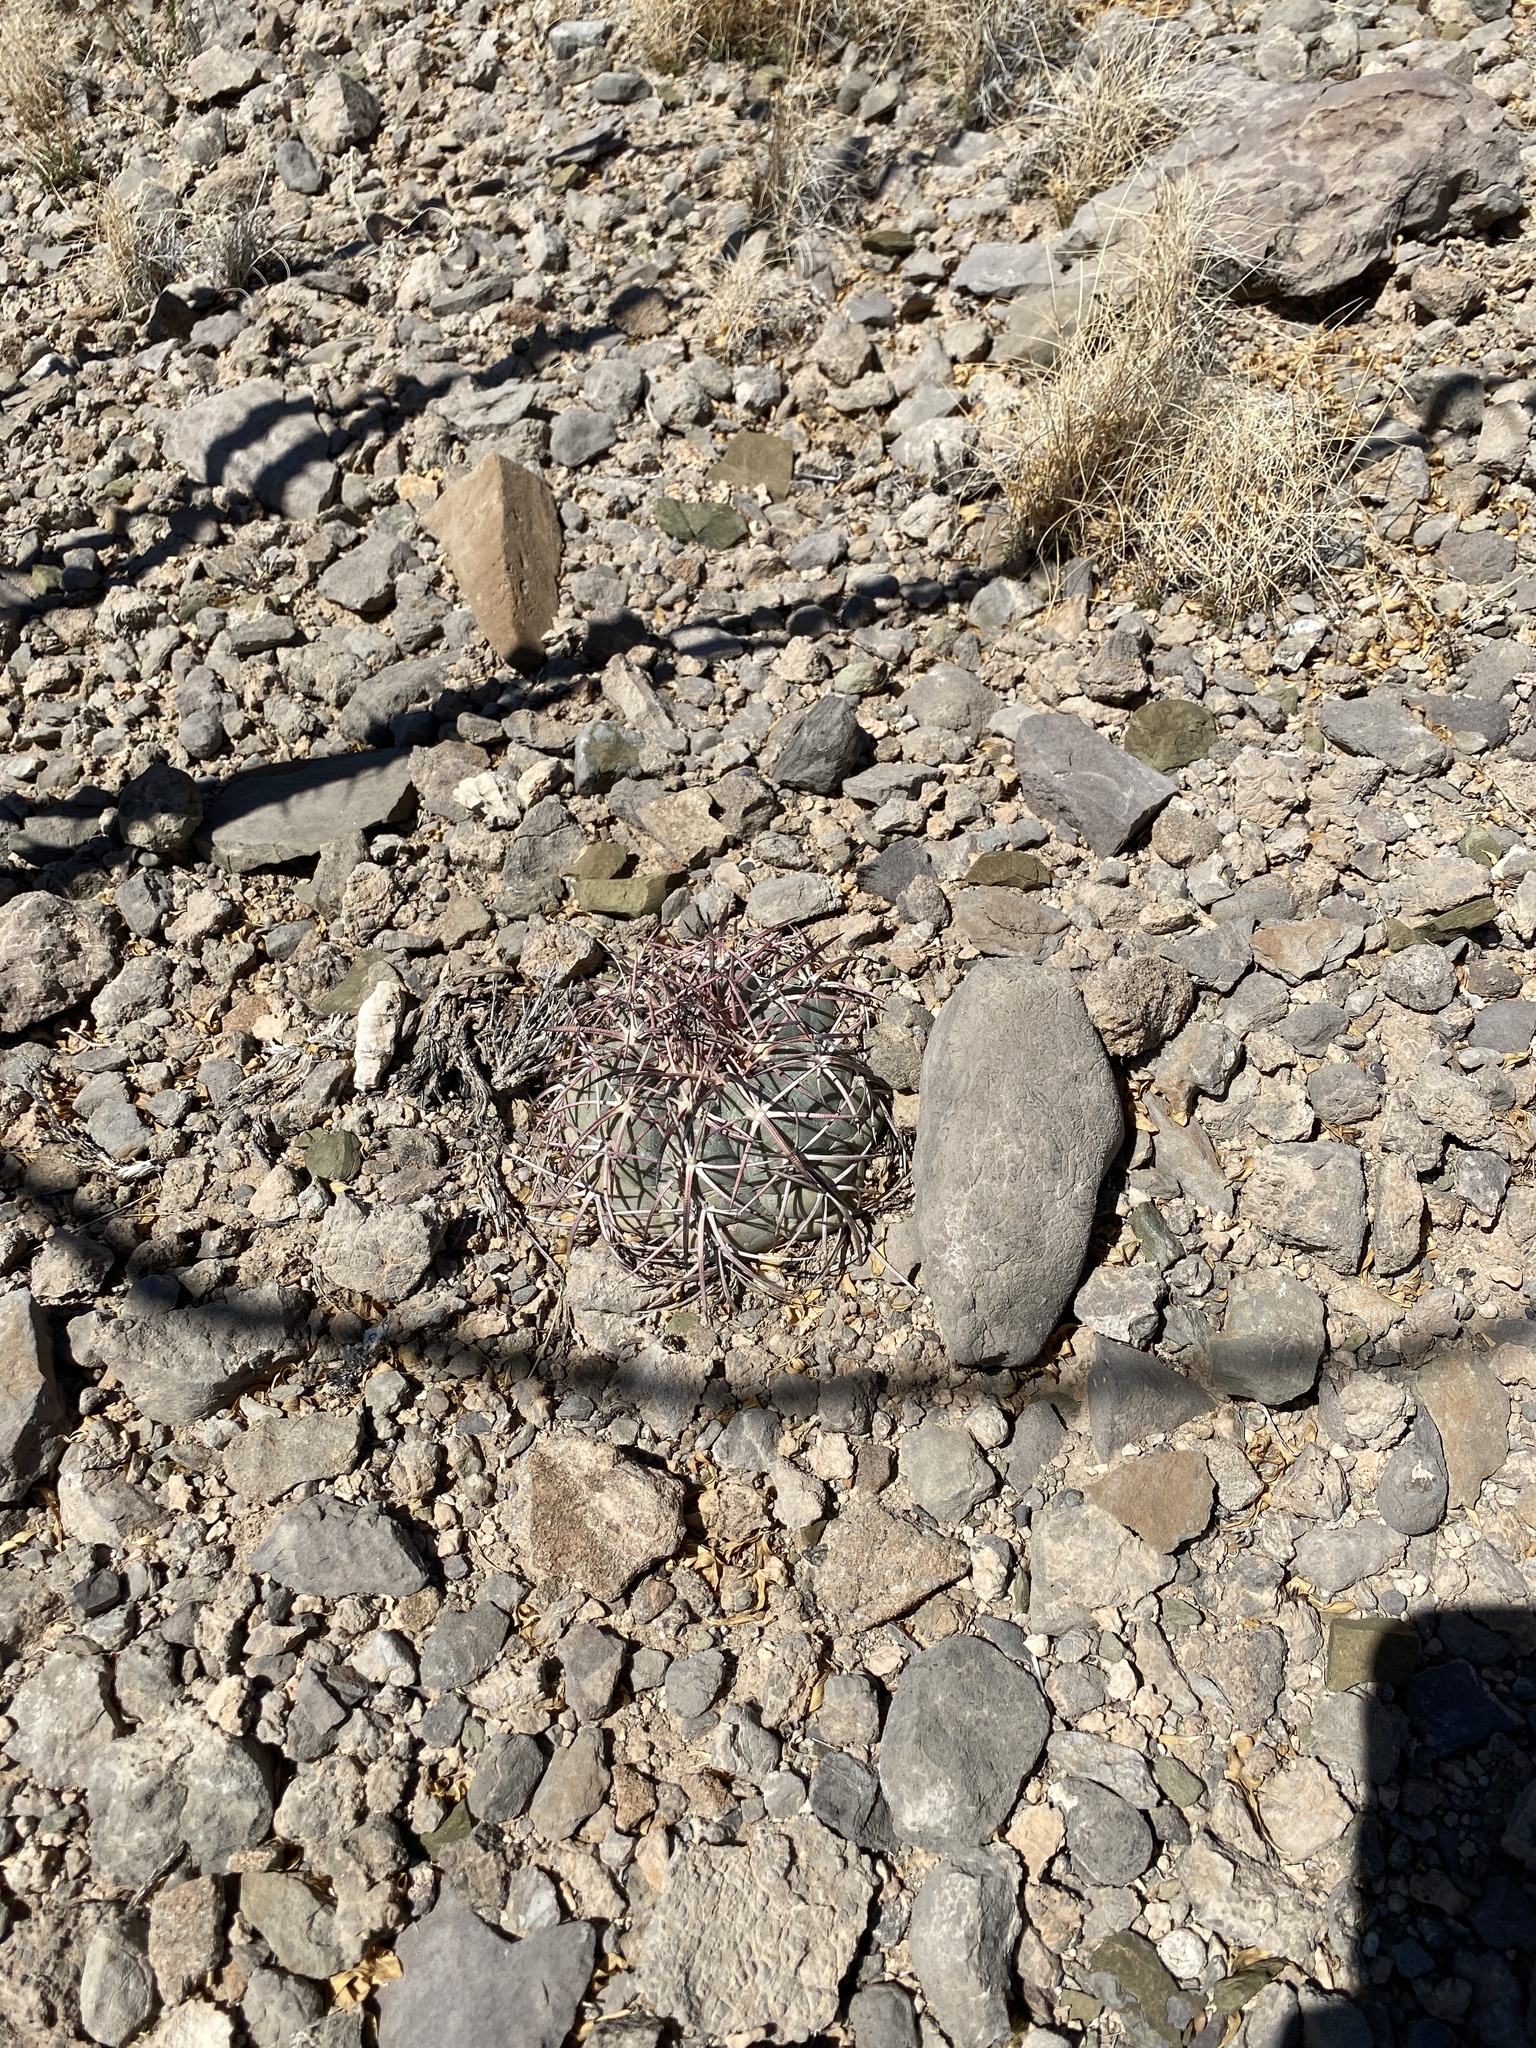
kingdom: Plantae
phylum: Tracheophyta
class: Magnoliopsida
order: Caryophyllales
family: Cactaceae
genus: Echinocactus
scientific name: Echinocactus horizonthalonius
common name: Devilshead
